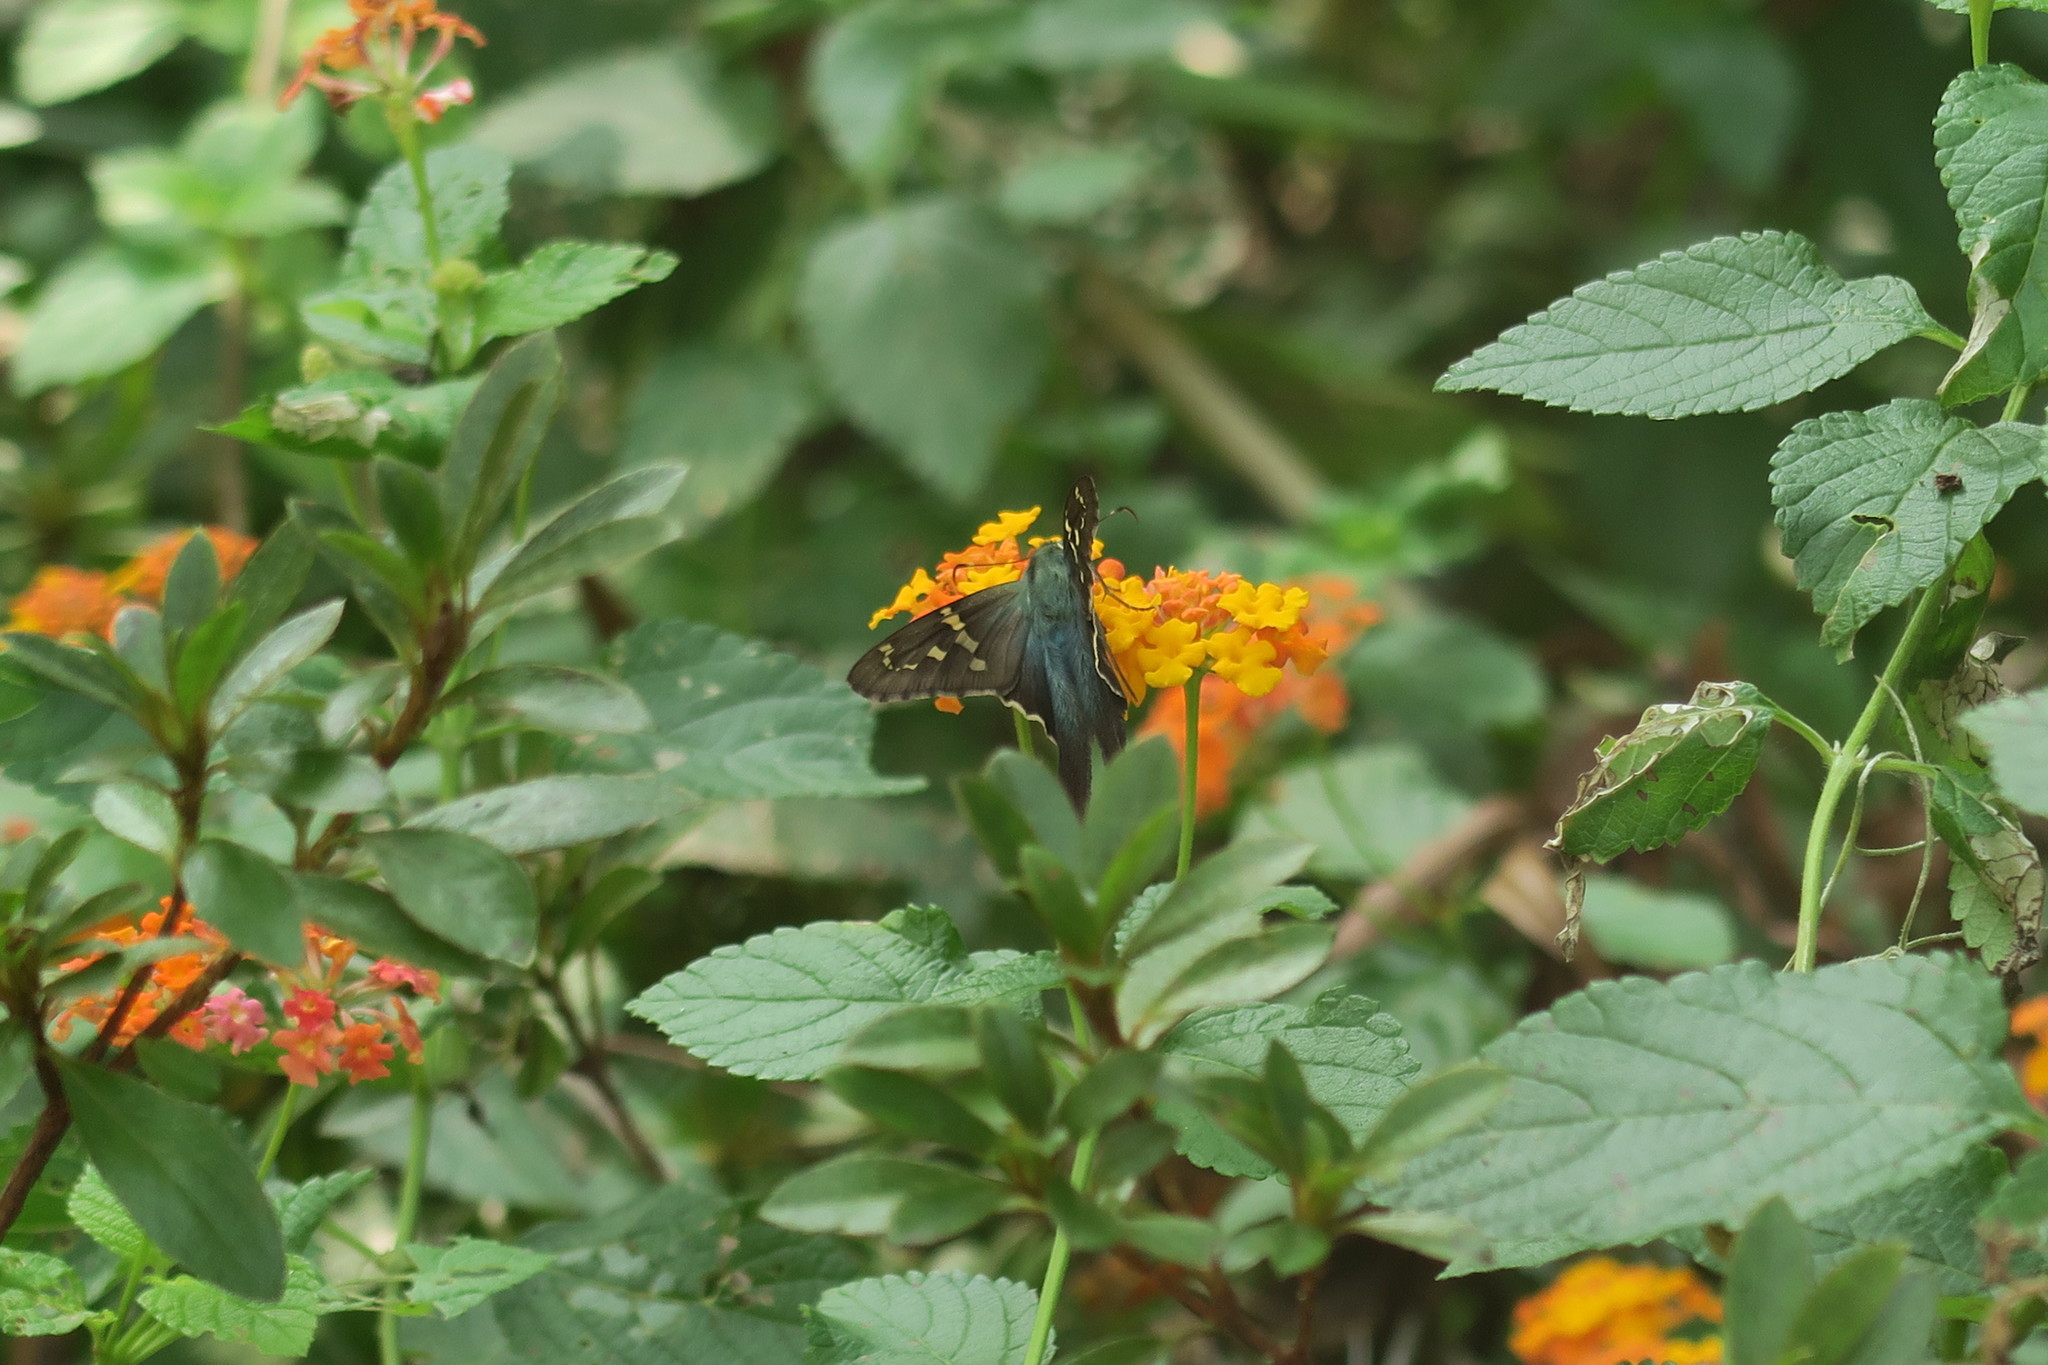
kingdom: Animalia
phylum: Arthropoda
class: Insecta
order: Lepidoptera
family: Hesperiidae
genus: Urbanus
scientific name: Urbanus proteus
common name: Long-tailed skipper
